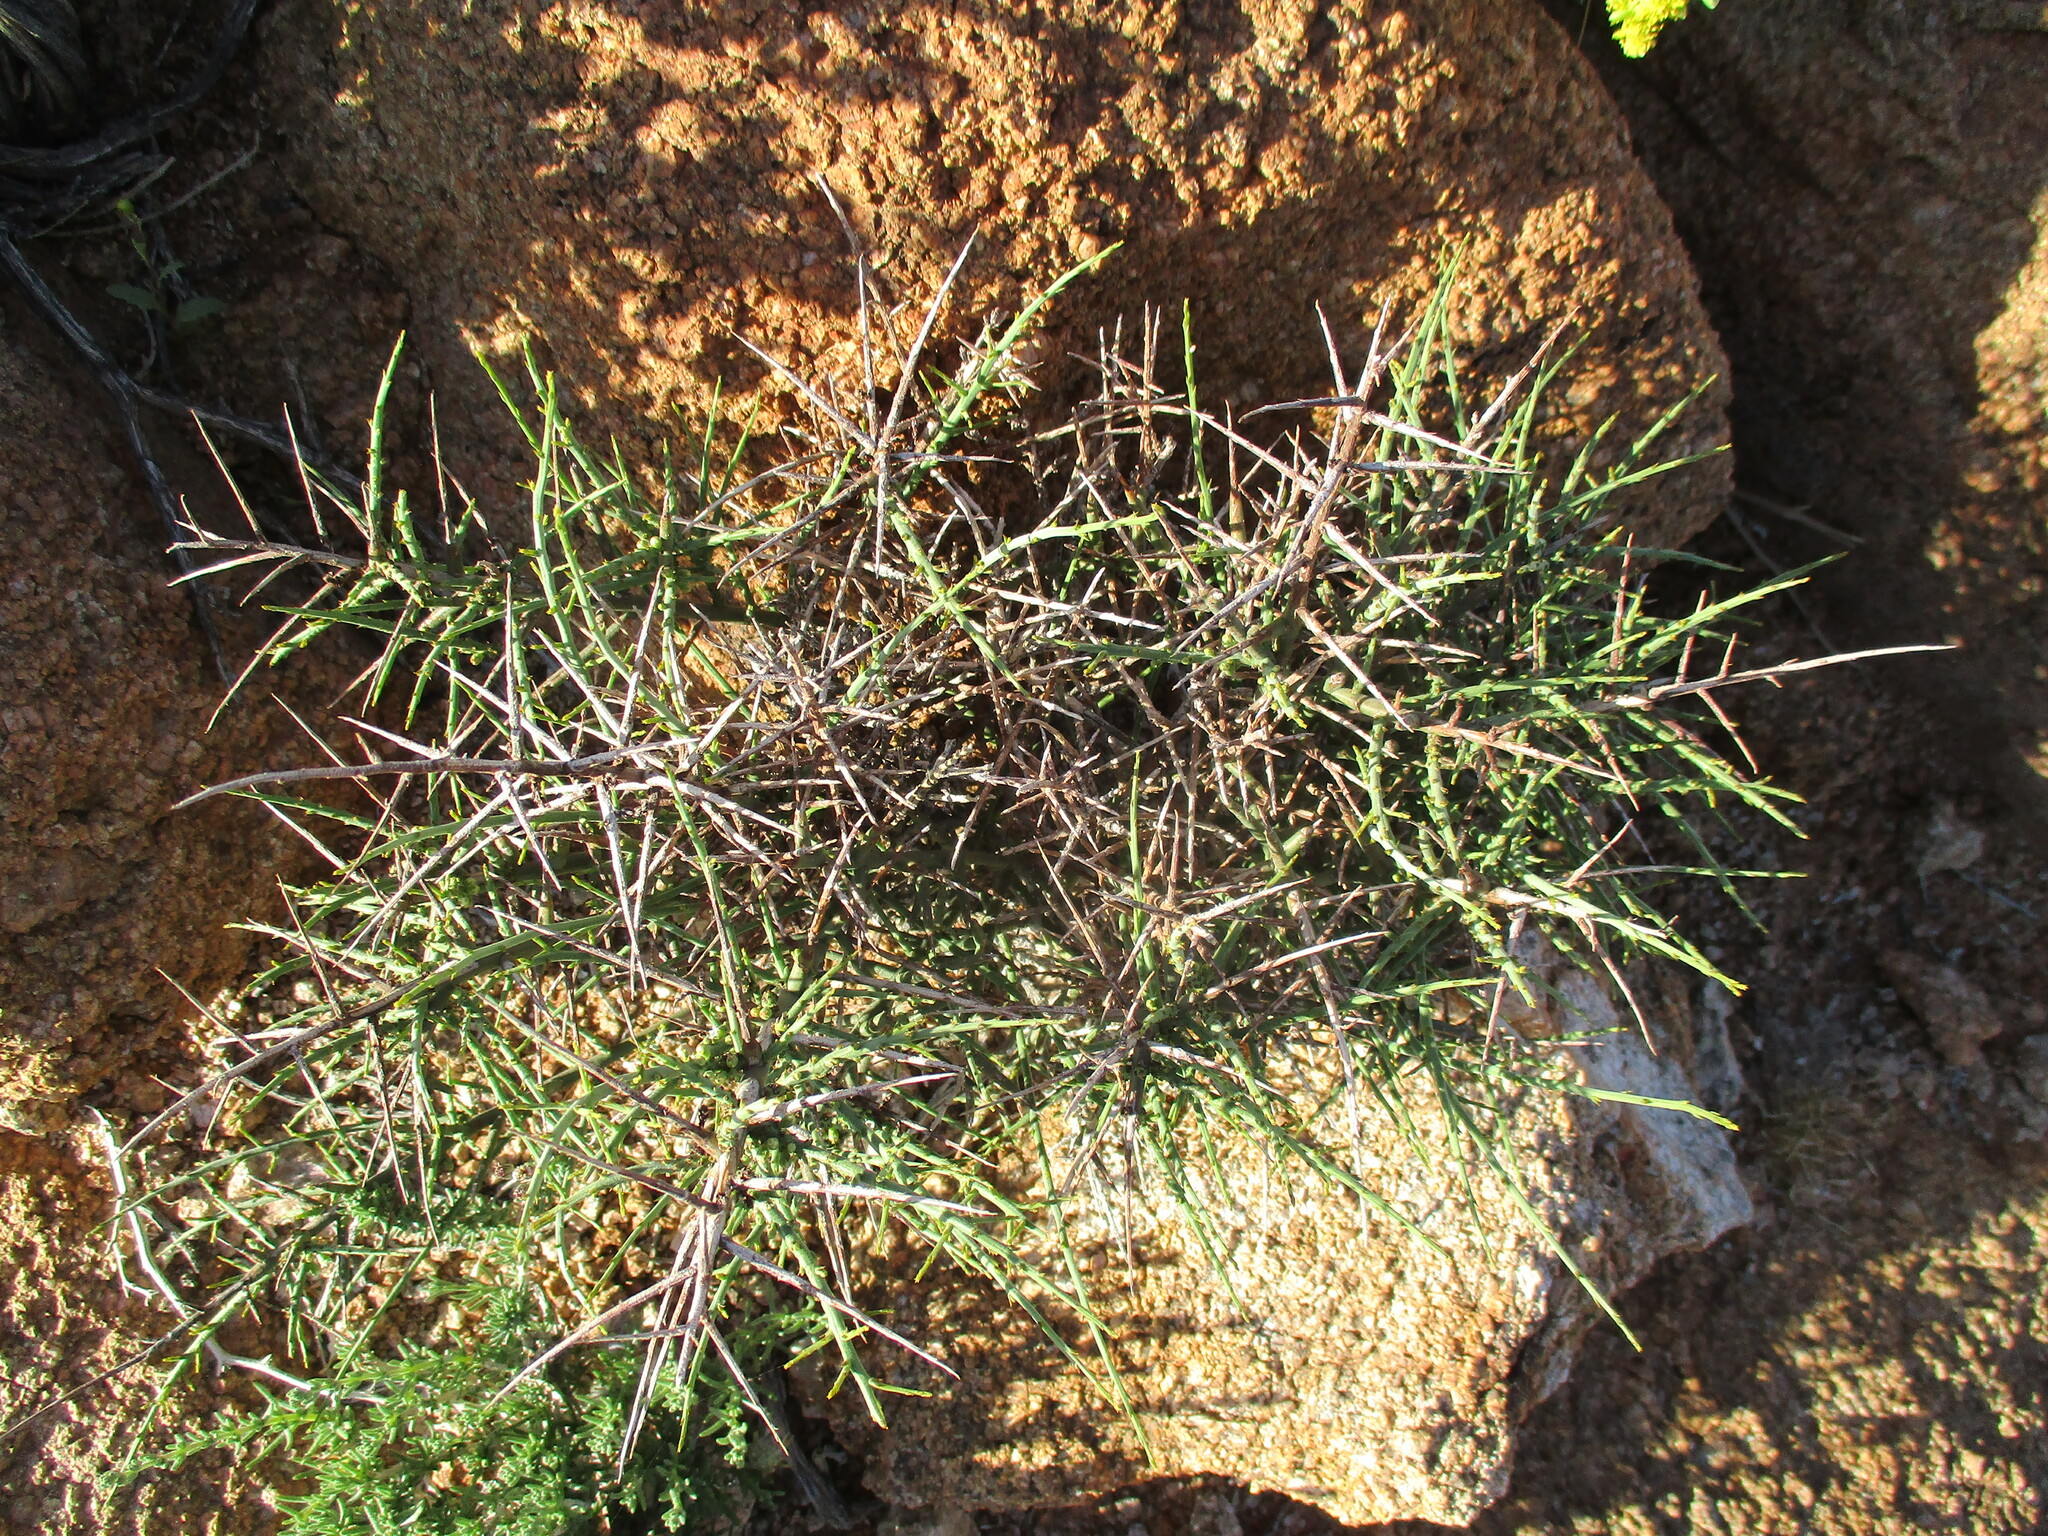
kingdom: Plantae
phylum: Tracheophyta
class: Magnoliopsida
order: Santalales
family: Thesiaceae
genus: Thesium
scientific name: Thesium xerophyticum
